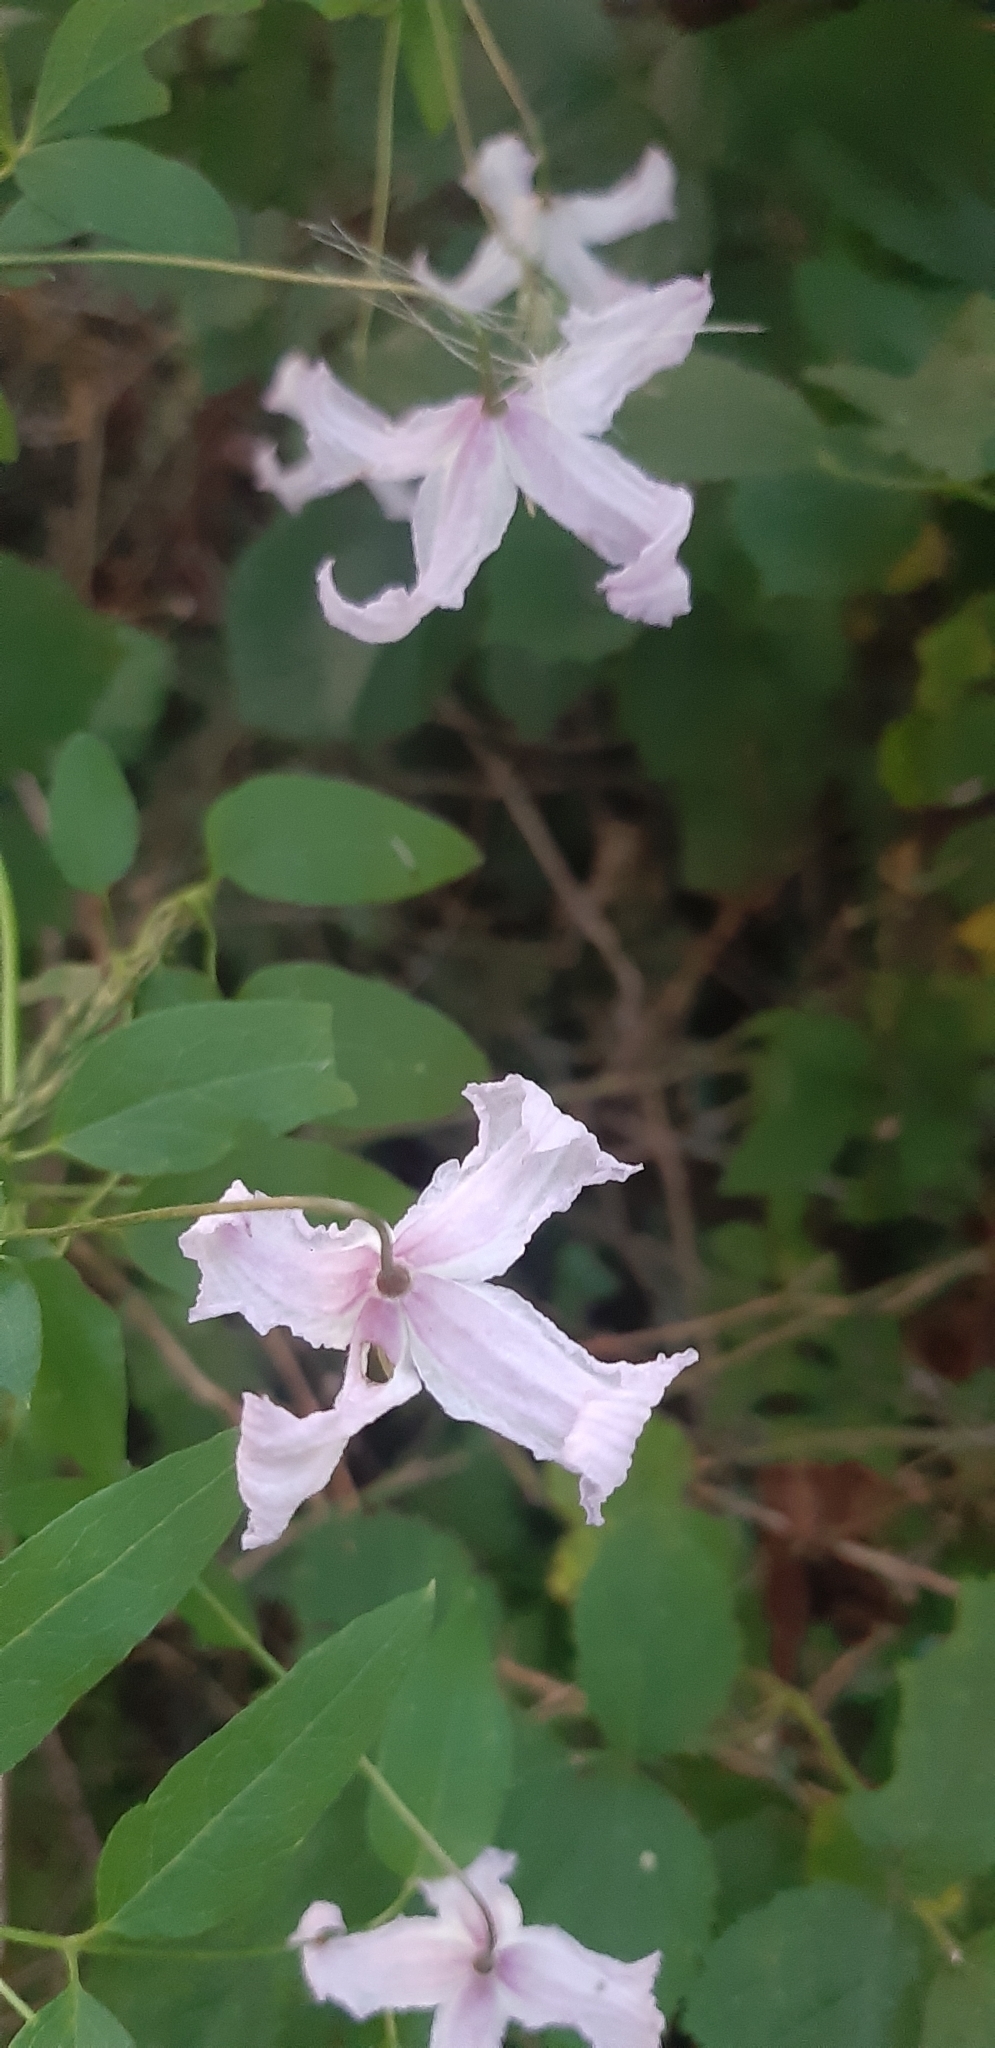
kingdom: Plantae
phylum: Tracheophyta
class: Magnoliopsida
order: Ranunculales
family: Ranunculaceae
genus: Clematis
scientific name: Clematis viticella
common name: Purple clematis
